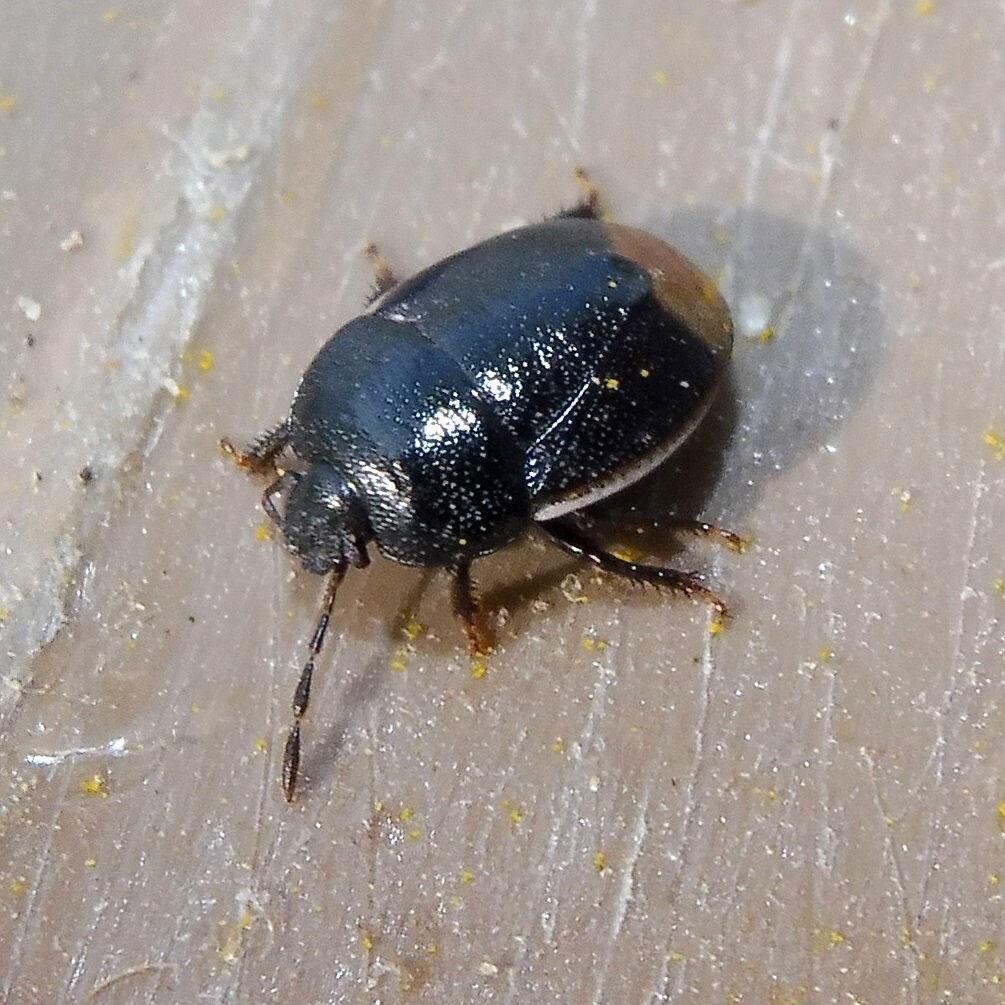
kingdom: Animalia
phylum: Arthropoda
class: Insecta
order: Hemiptera
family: Cydnidae
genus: Legnotus
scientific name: Legnotus limbosus
